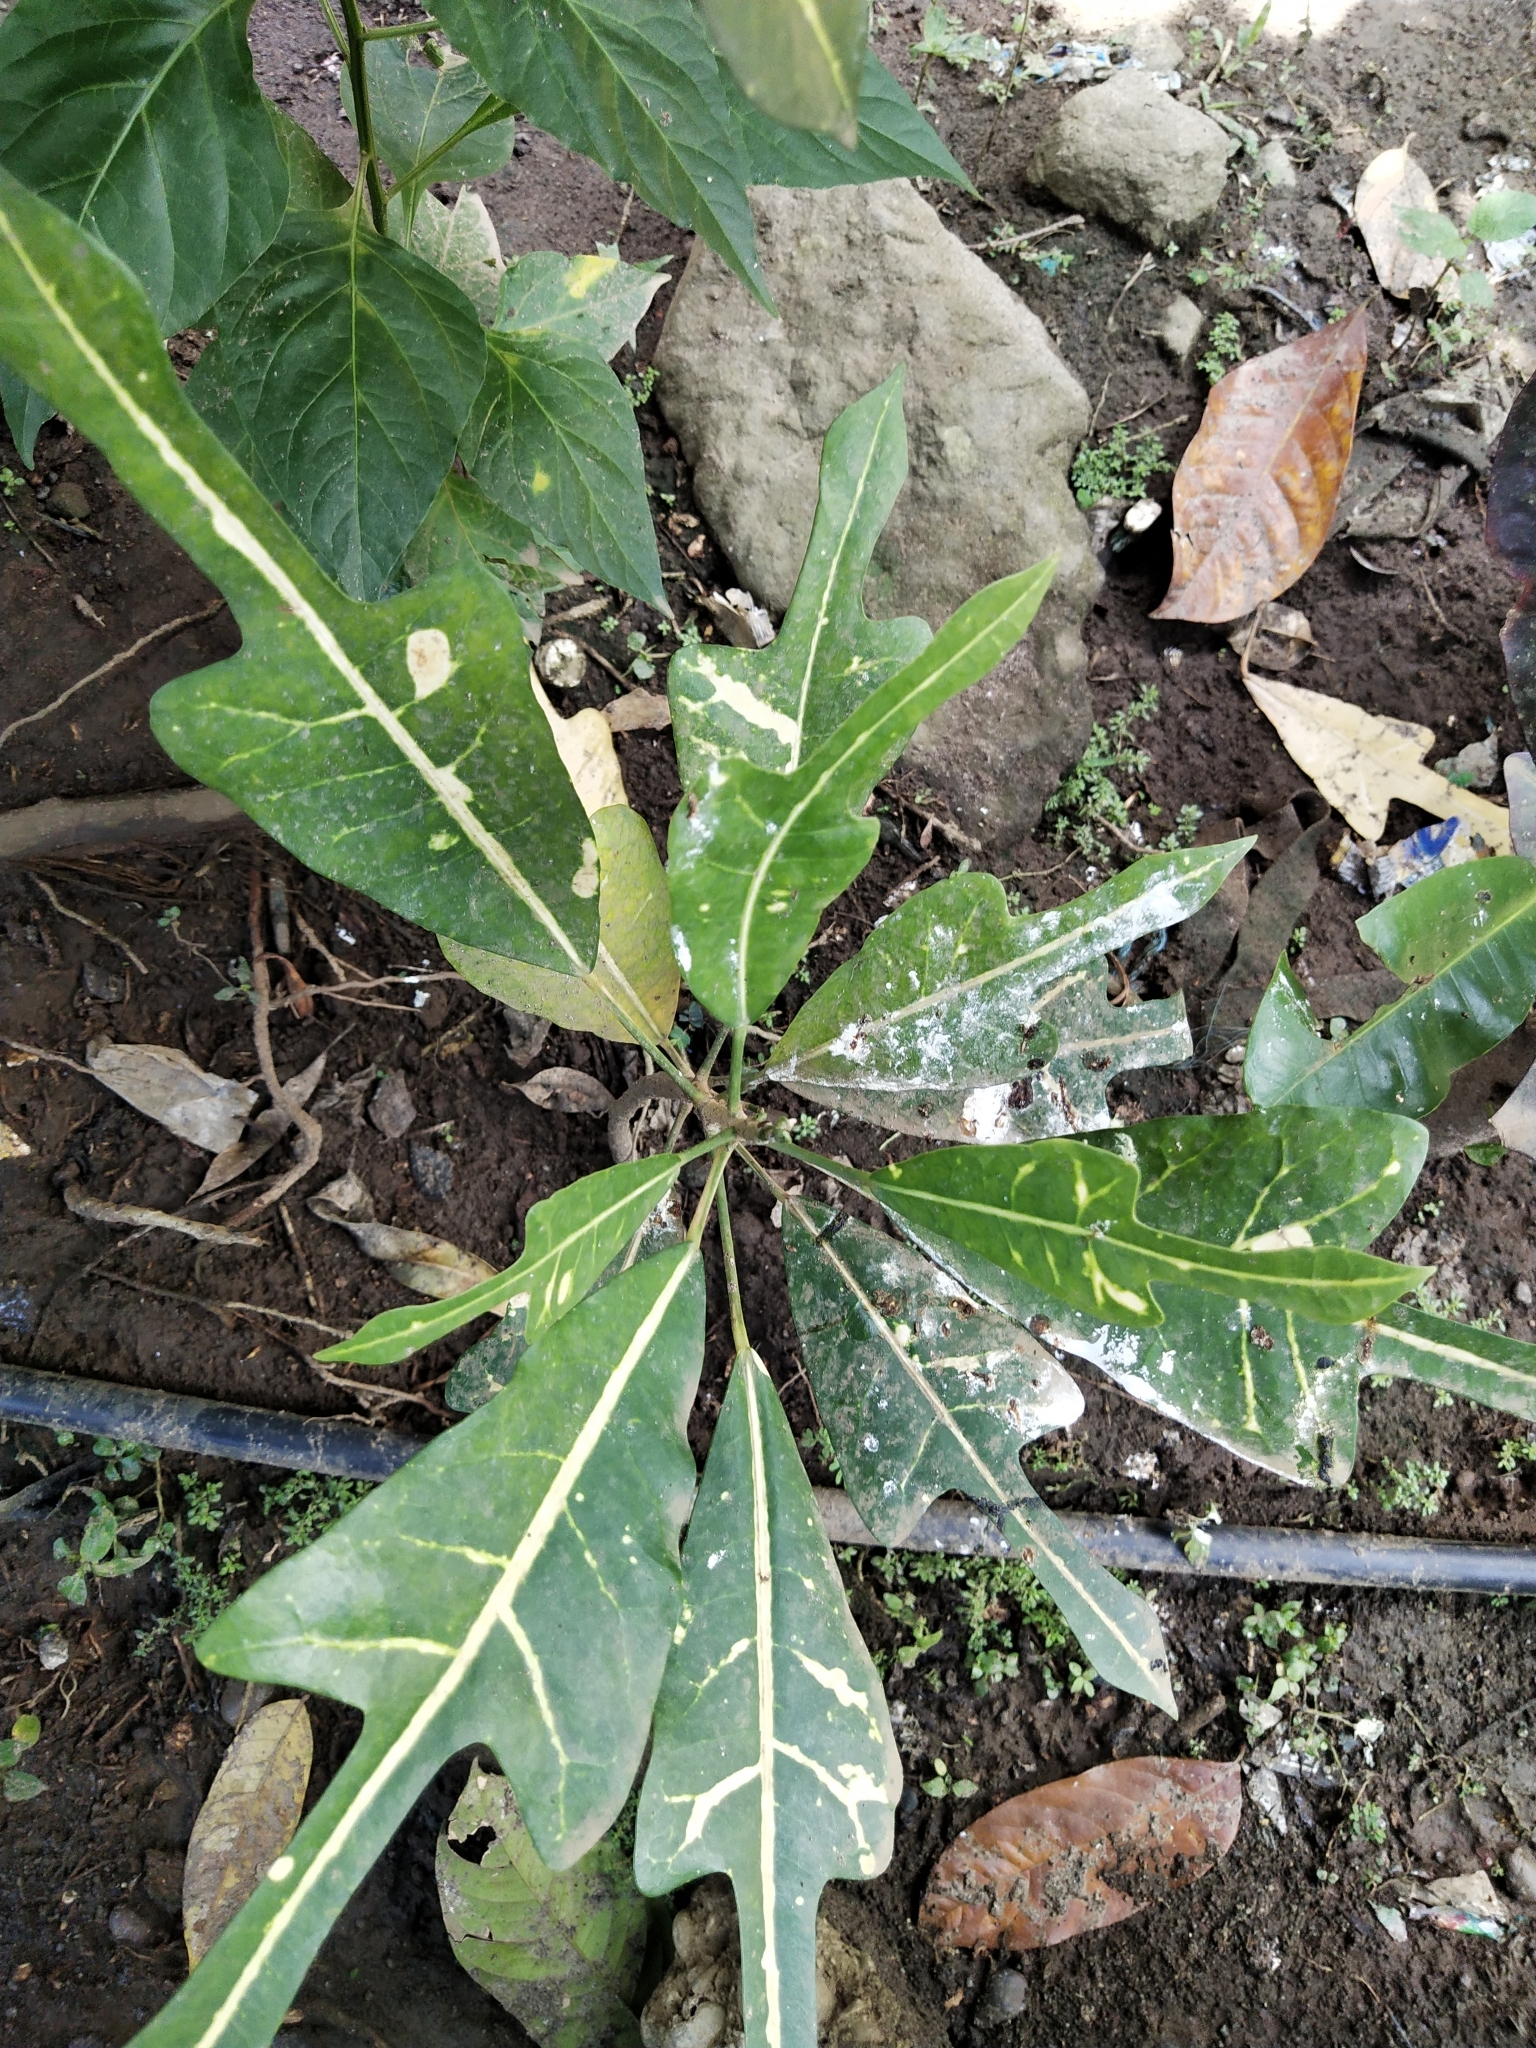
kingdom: Plantae
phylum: Tracheophyta
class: Magnoliopsida
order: Malpighiales
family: Euphorbiaceae
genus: Codiaeum
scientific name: Codiaeum variegatum
